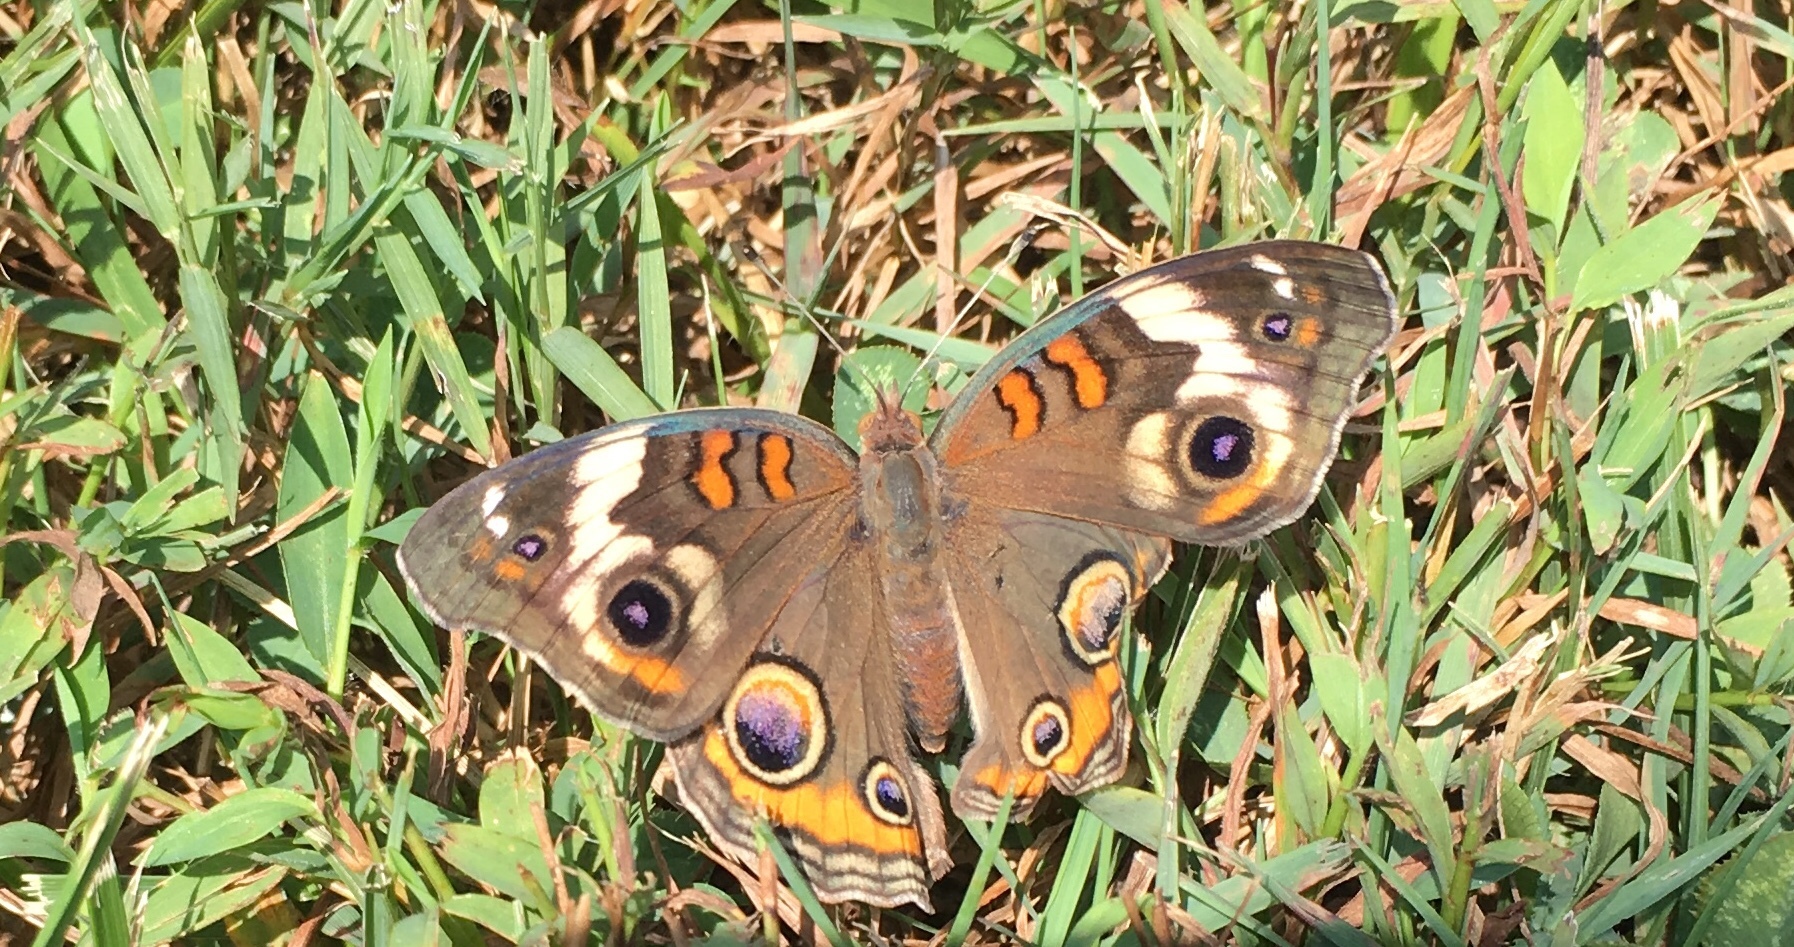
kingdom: Animalia
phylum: Arthropoda
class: Insecta
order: Lepidoptera
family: Nymphalidae
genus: Junonia
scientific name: Junonia coenia
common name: Common buckeye
